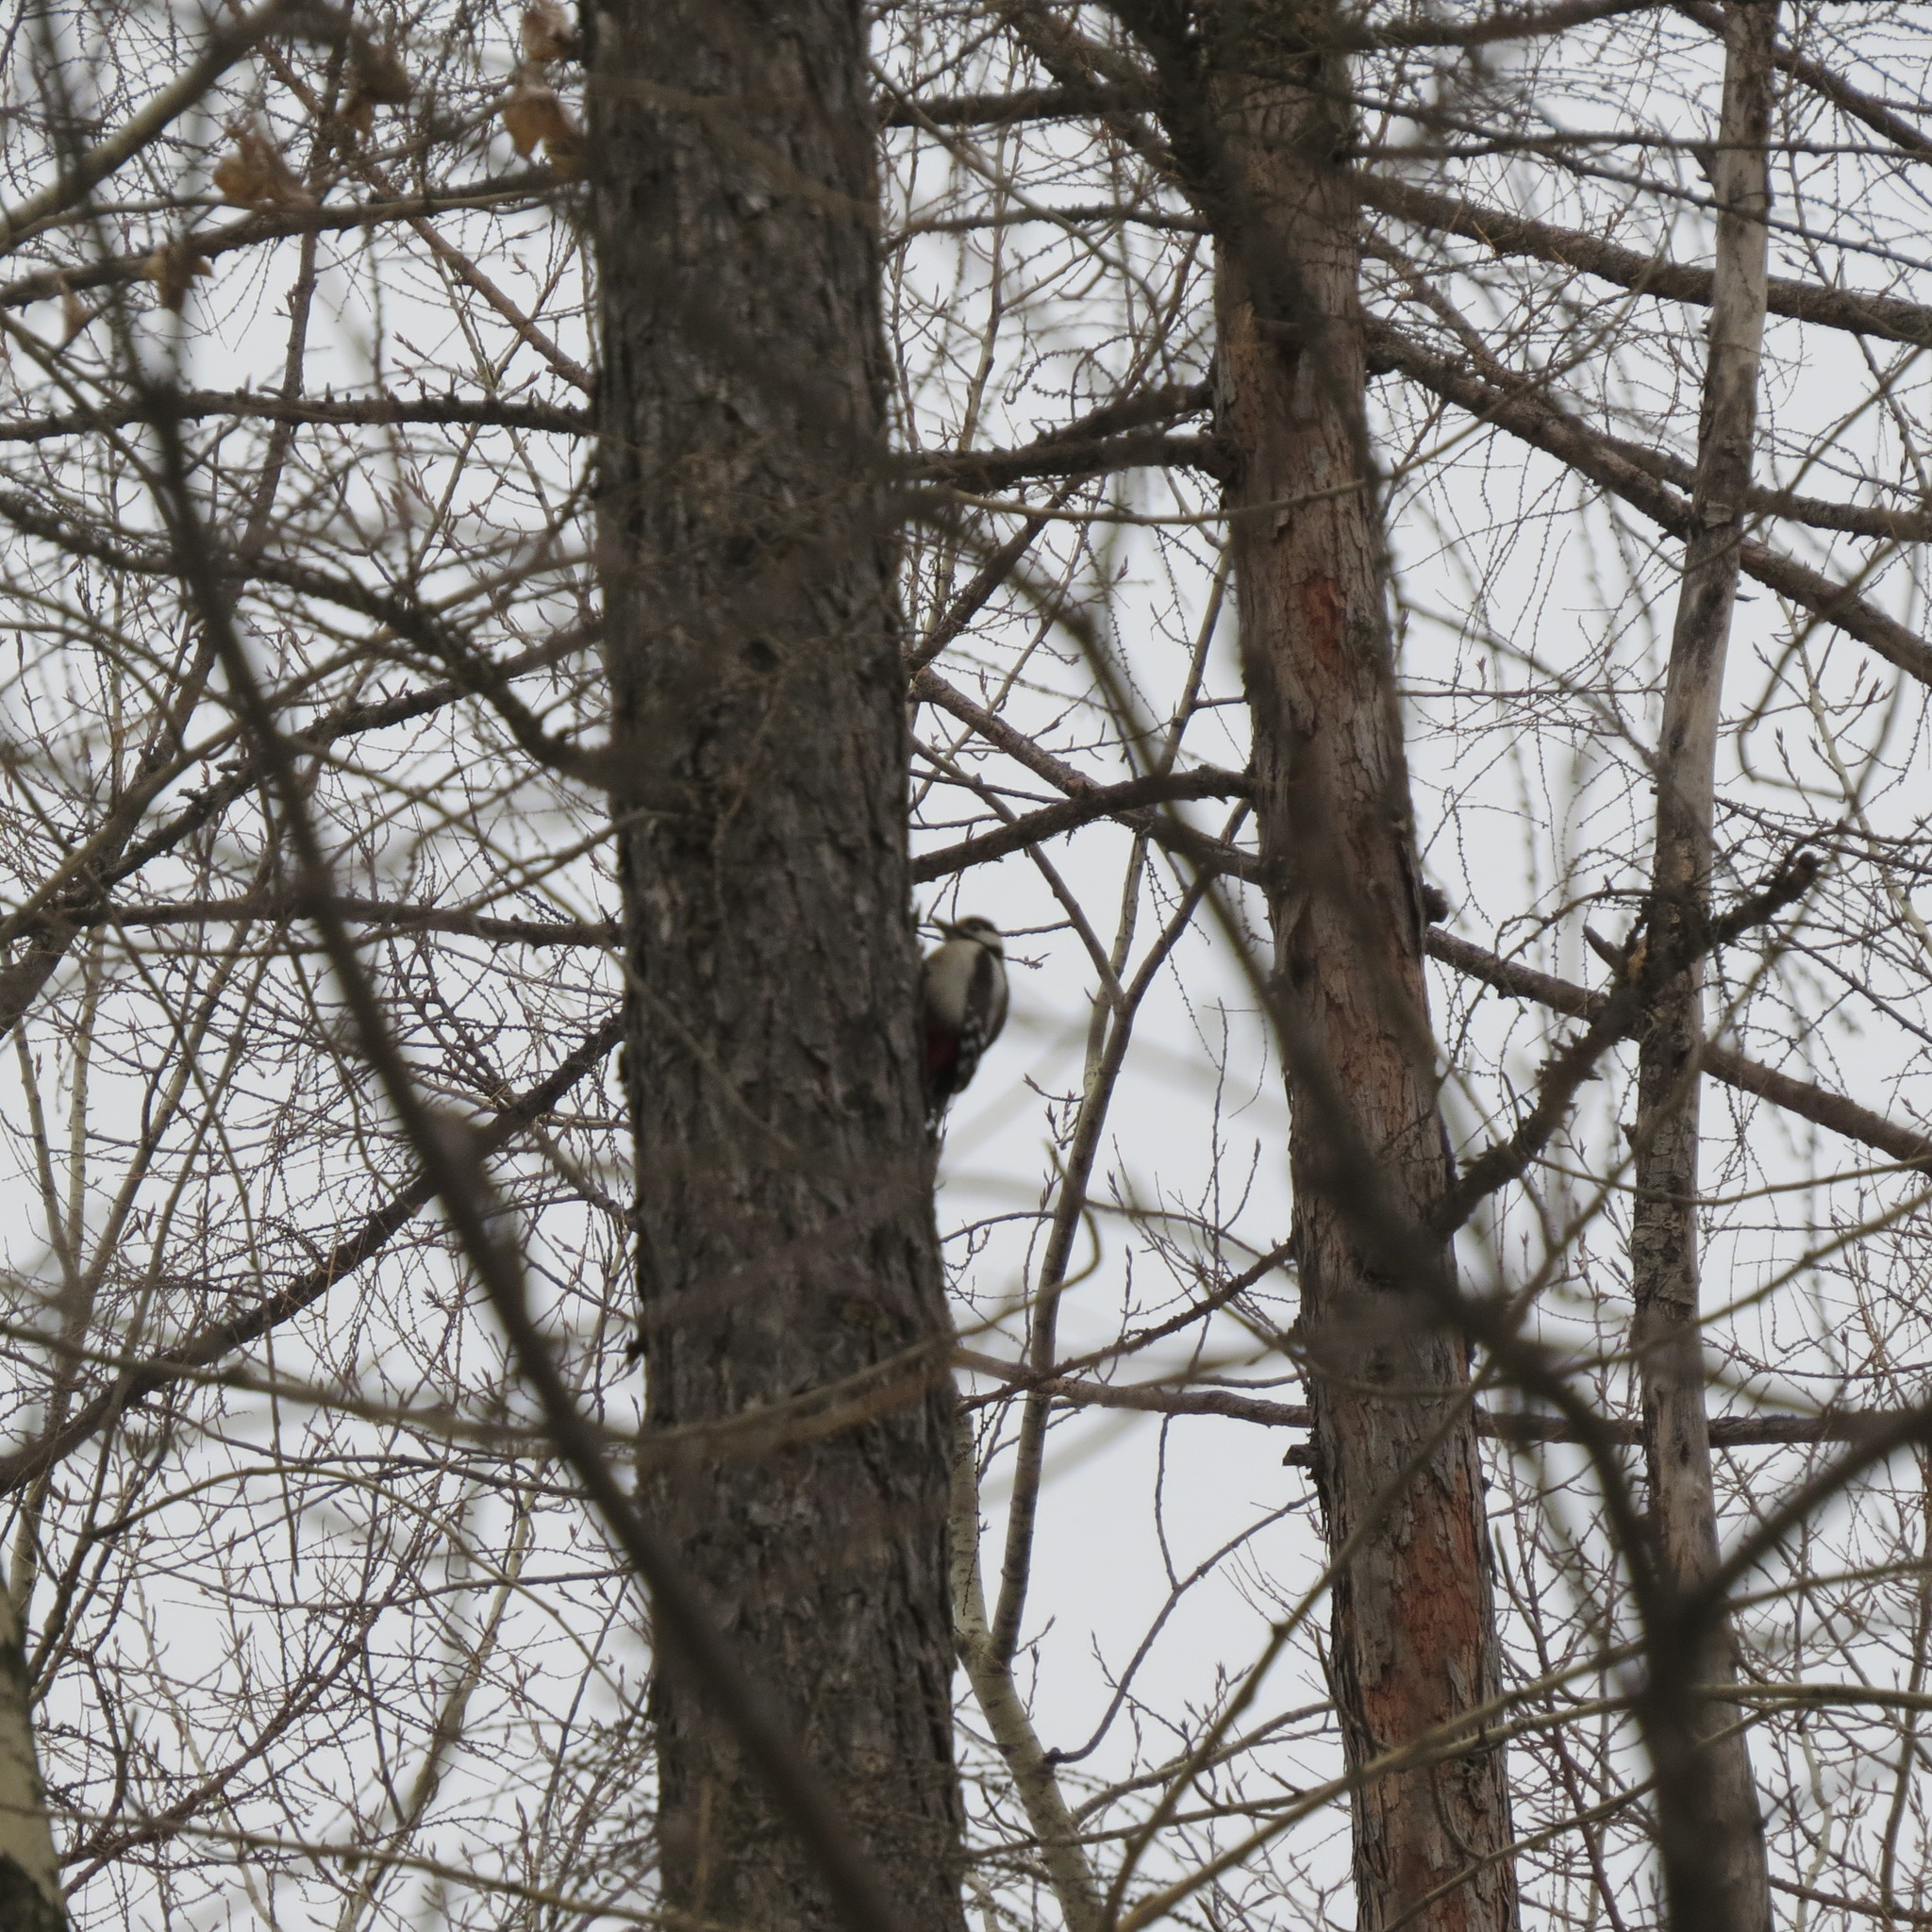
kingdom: Animalia
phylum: Chordata
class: Aves
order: Piciformes
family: Picidae
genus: Dendrocopos
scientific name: Dendrocopos major
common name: Great spotted woodpecker
